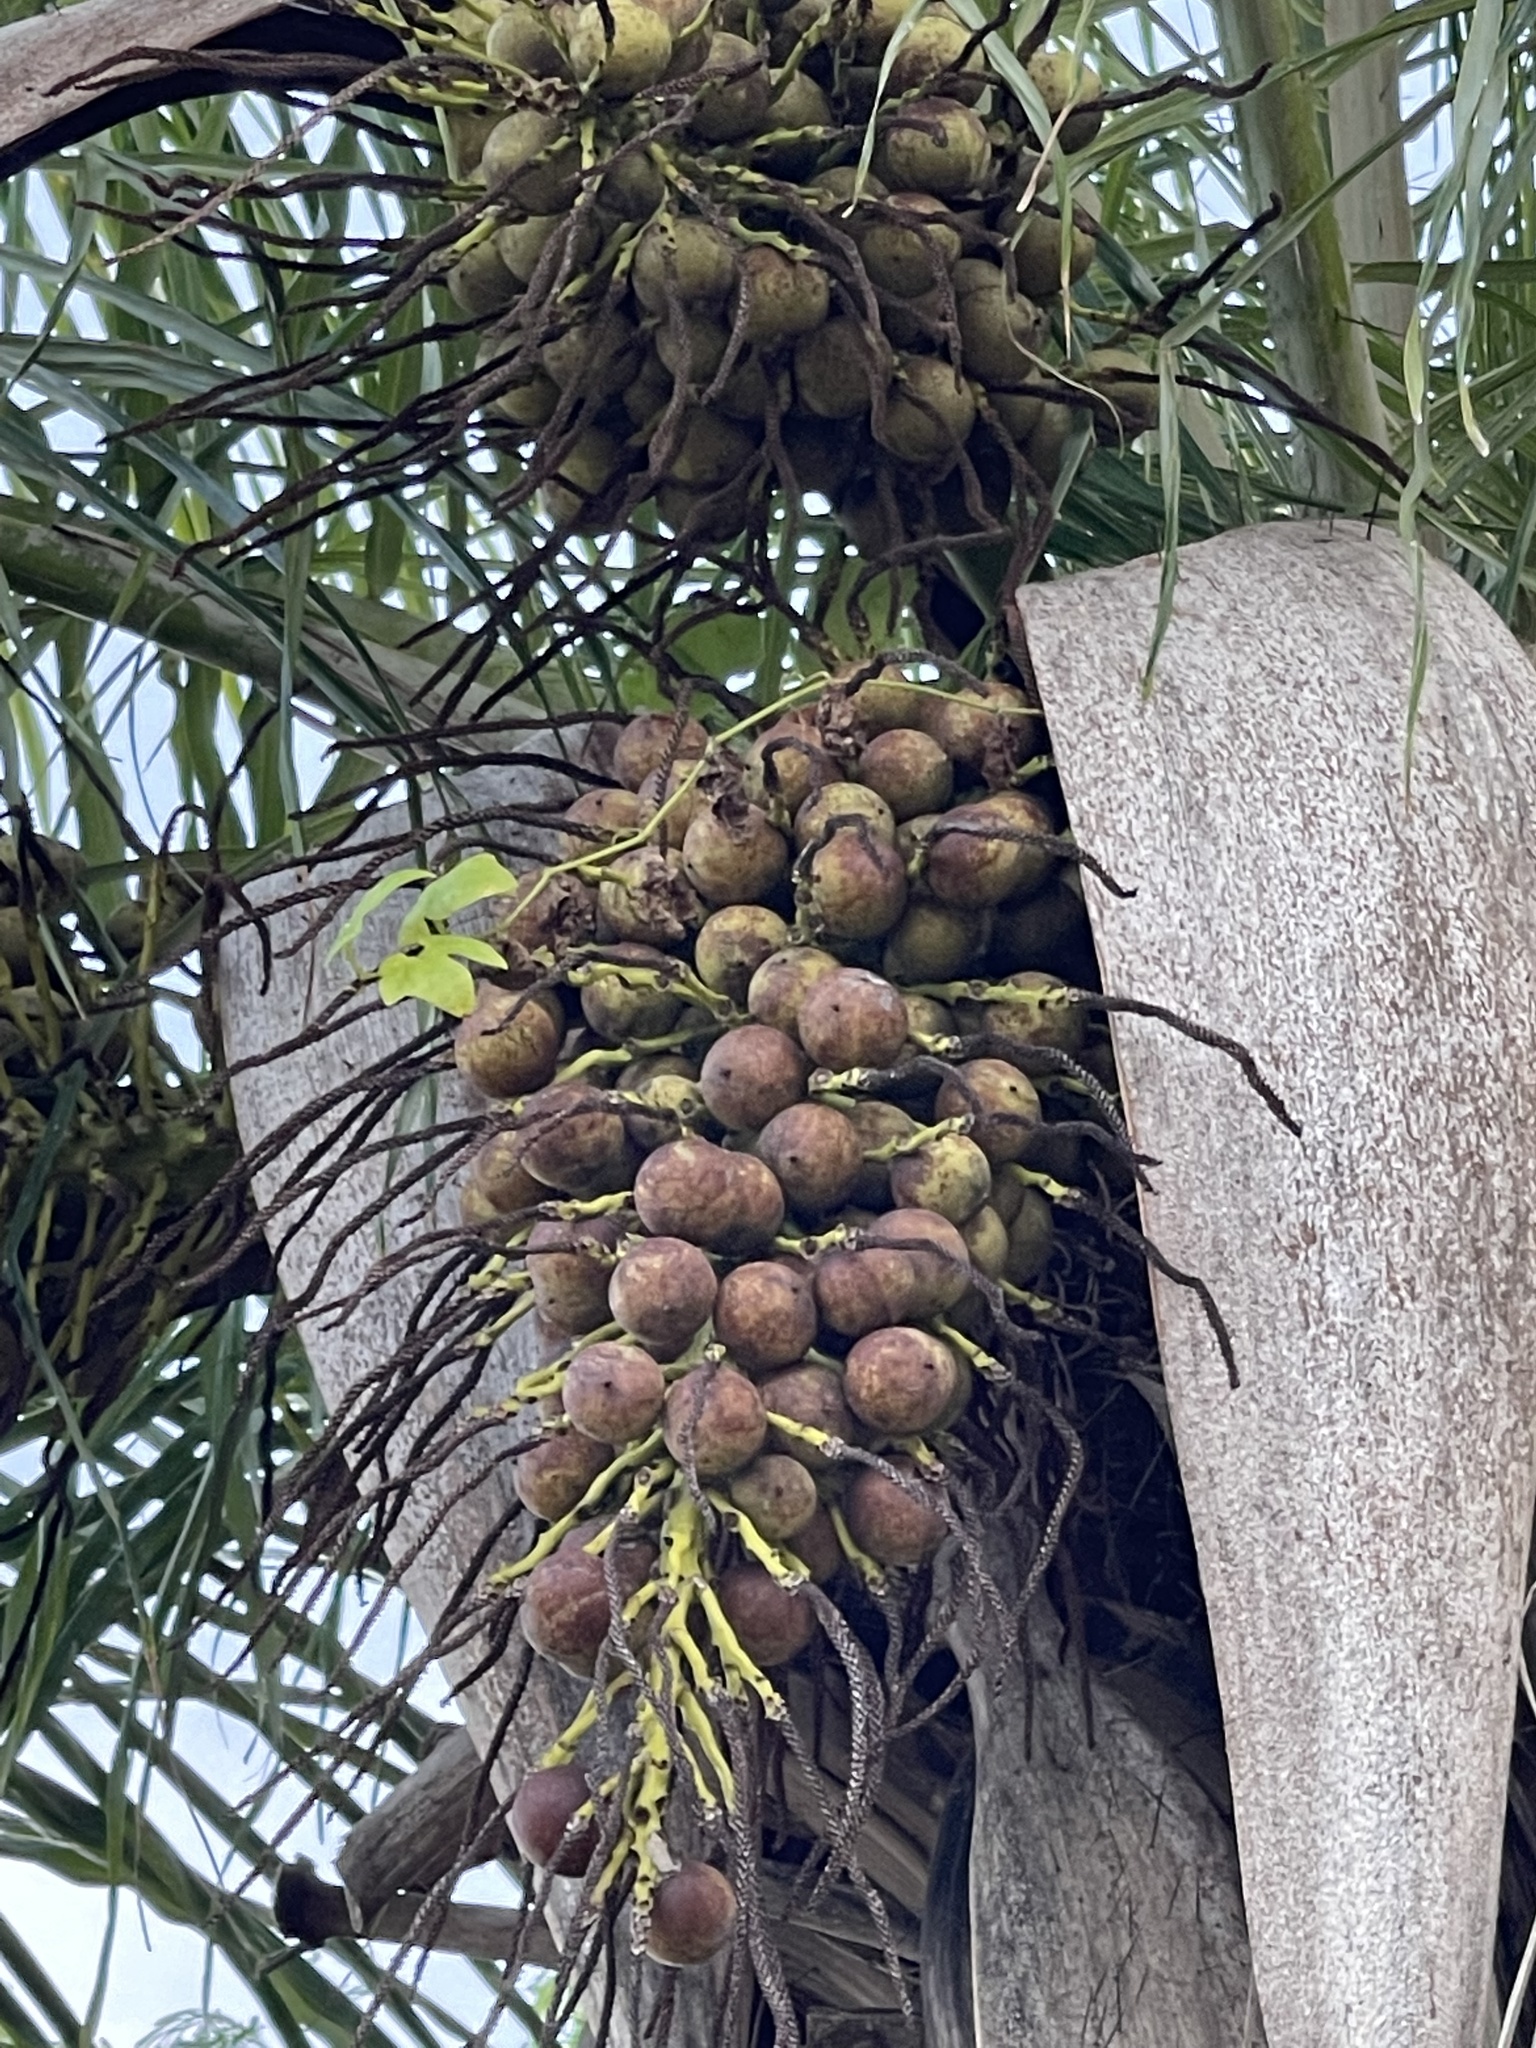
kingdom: Plantae
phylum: Tracheophyta
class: Liliopsida
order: Arecales
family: Arecaceae
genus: Acrocomia
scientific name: Acrocomia aculeata
